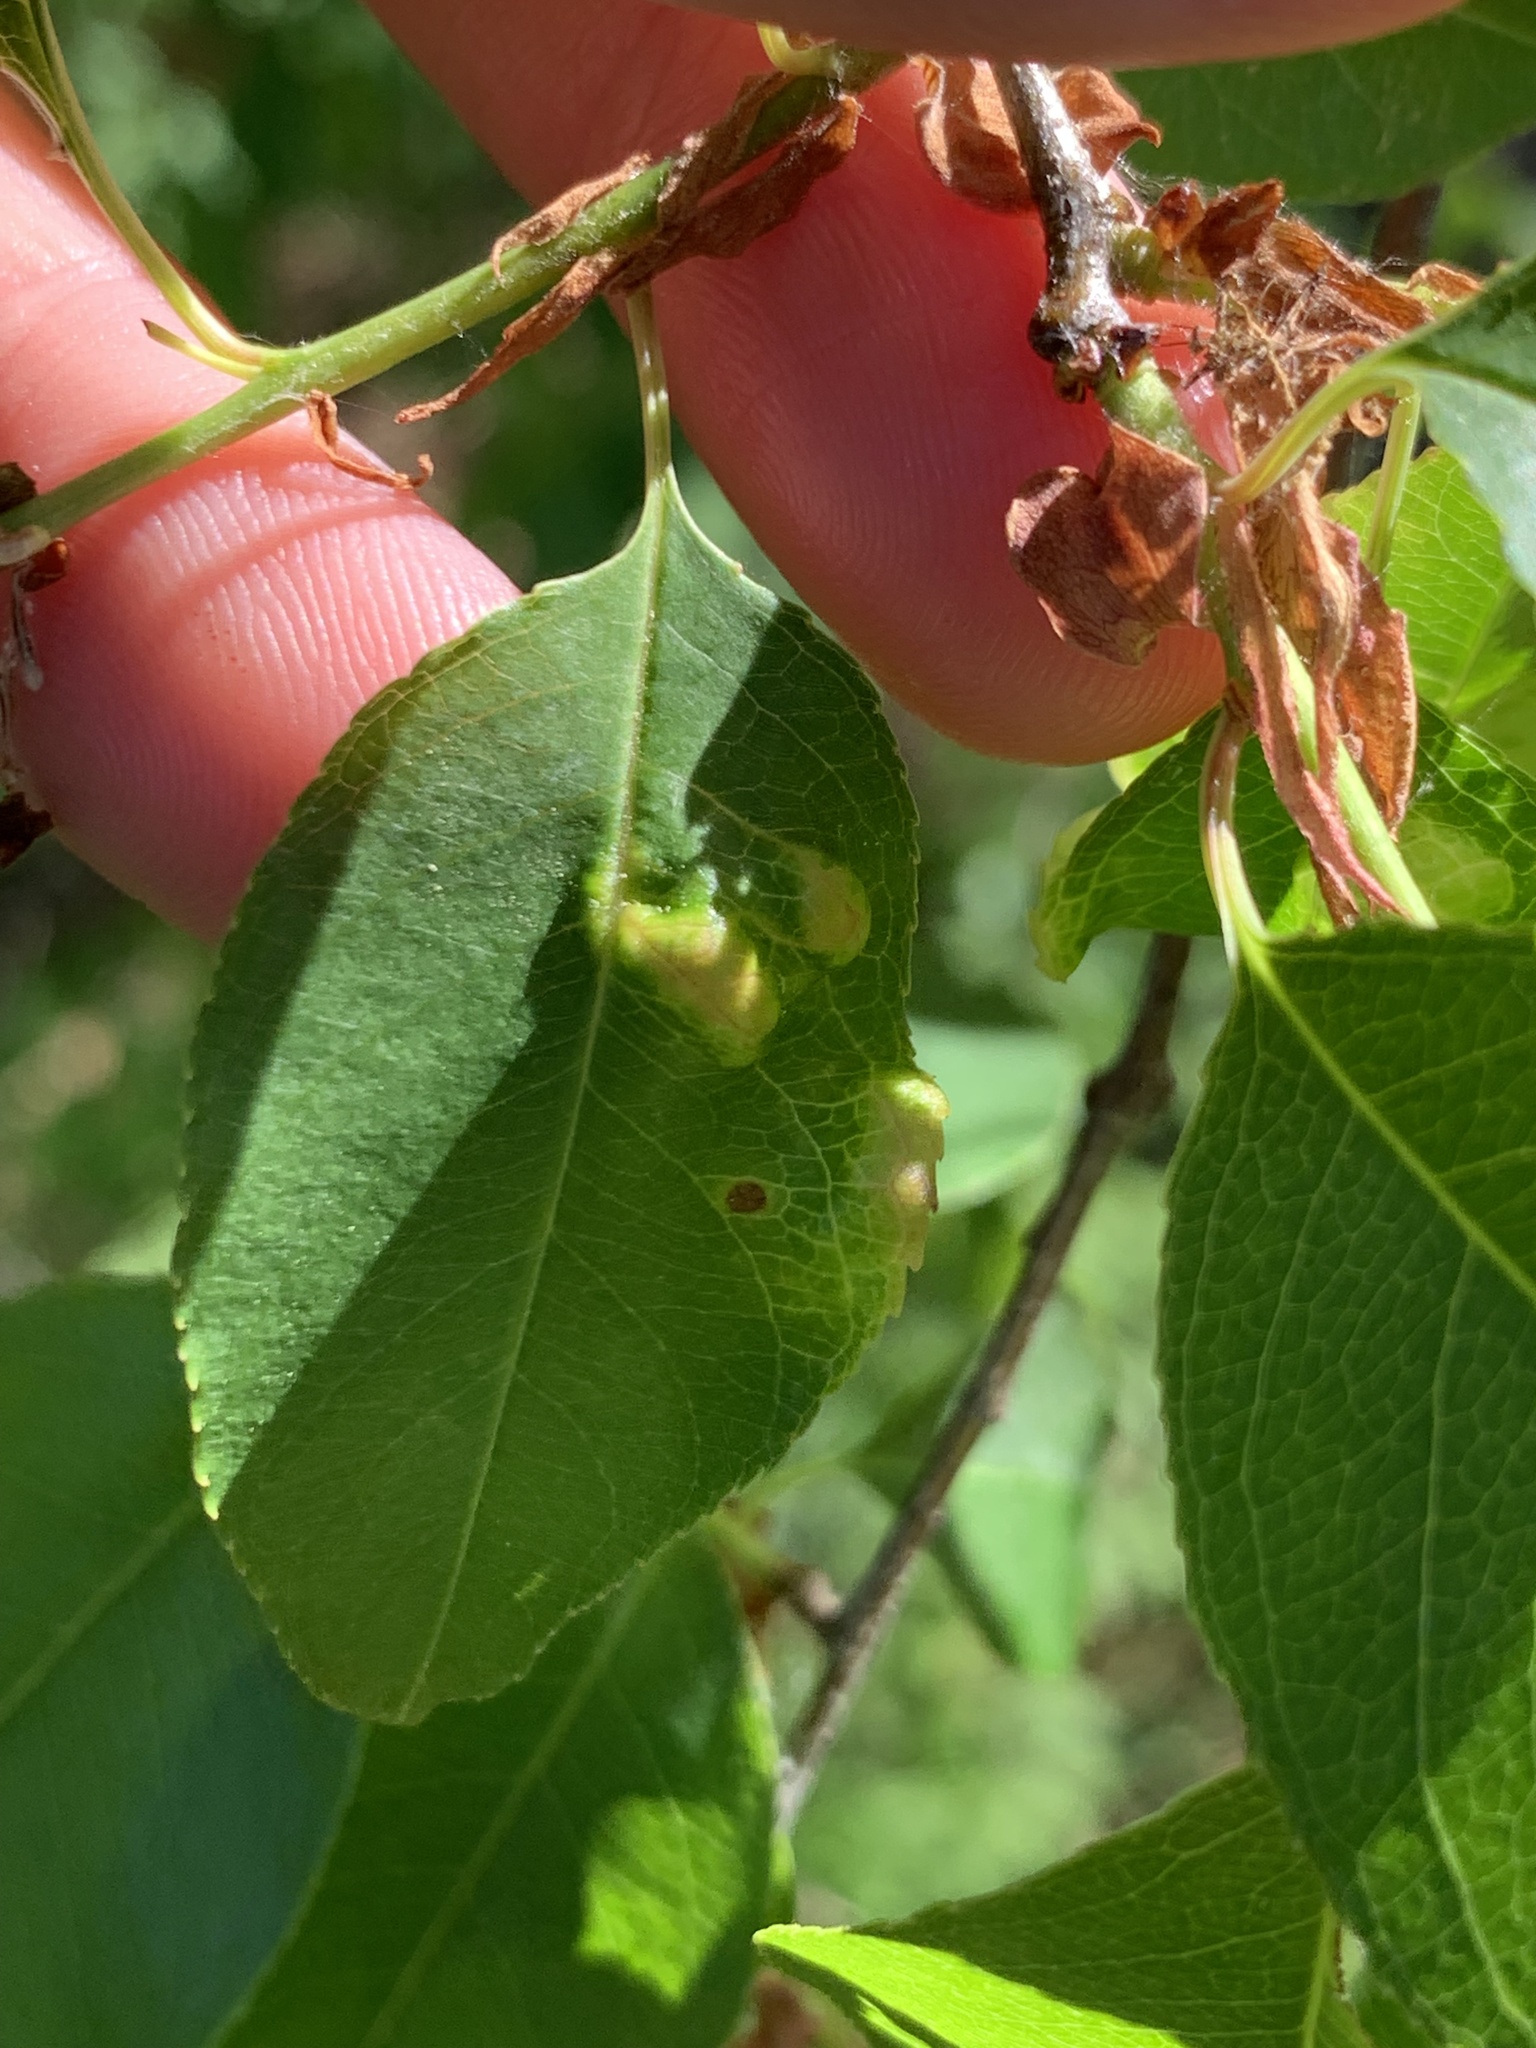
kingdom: Fungi
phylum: Ascomycota
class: Taphrinomycetes
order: Taphrinales
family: Taphrinaceae
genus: Taphrina
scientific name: Taphrina farlowii
